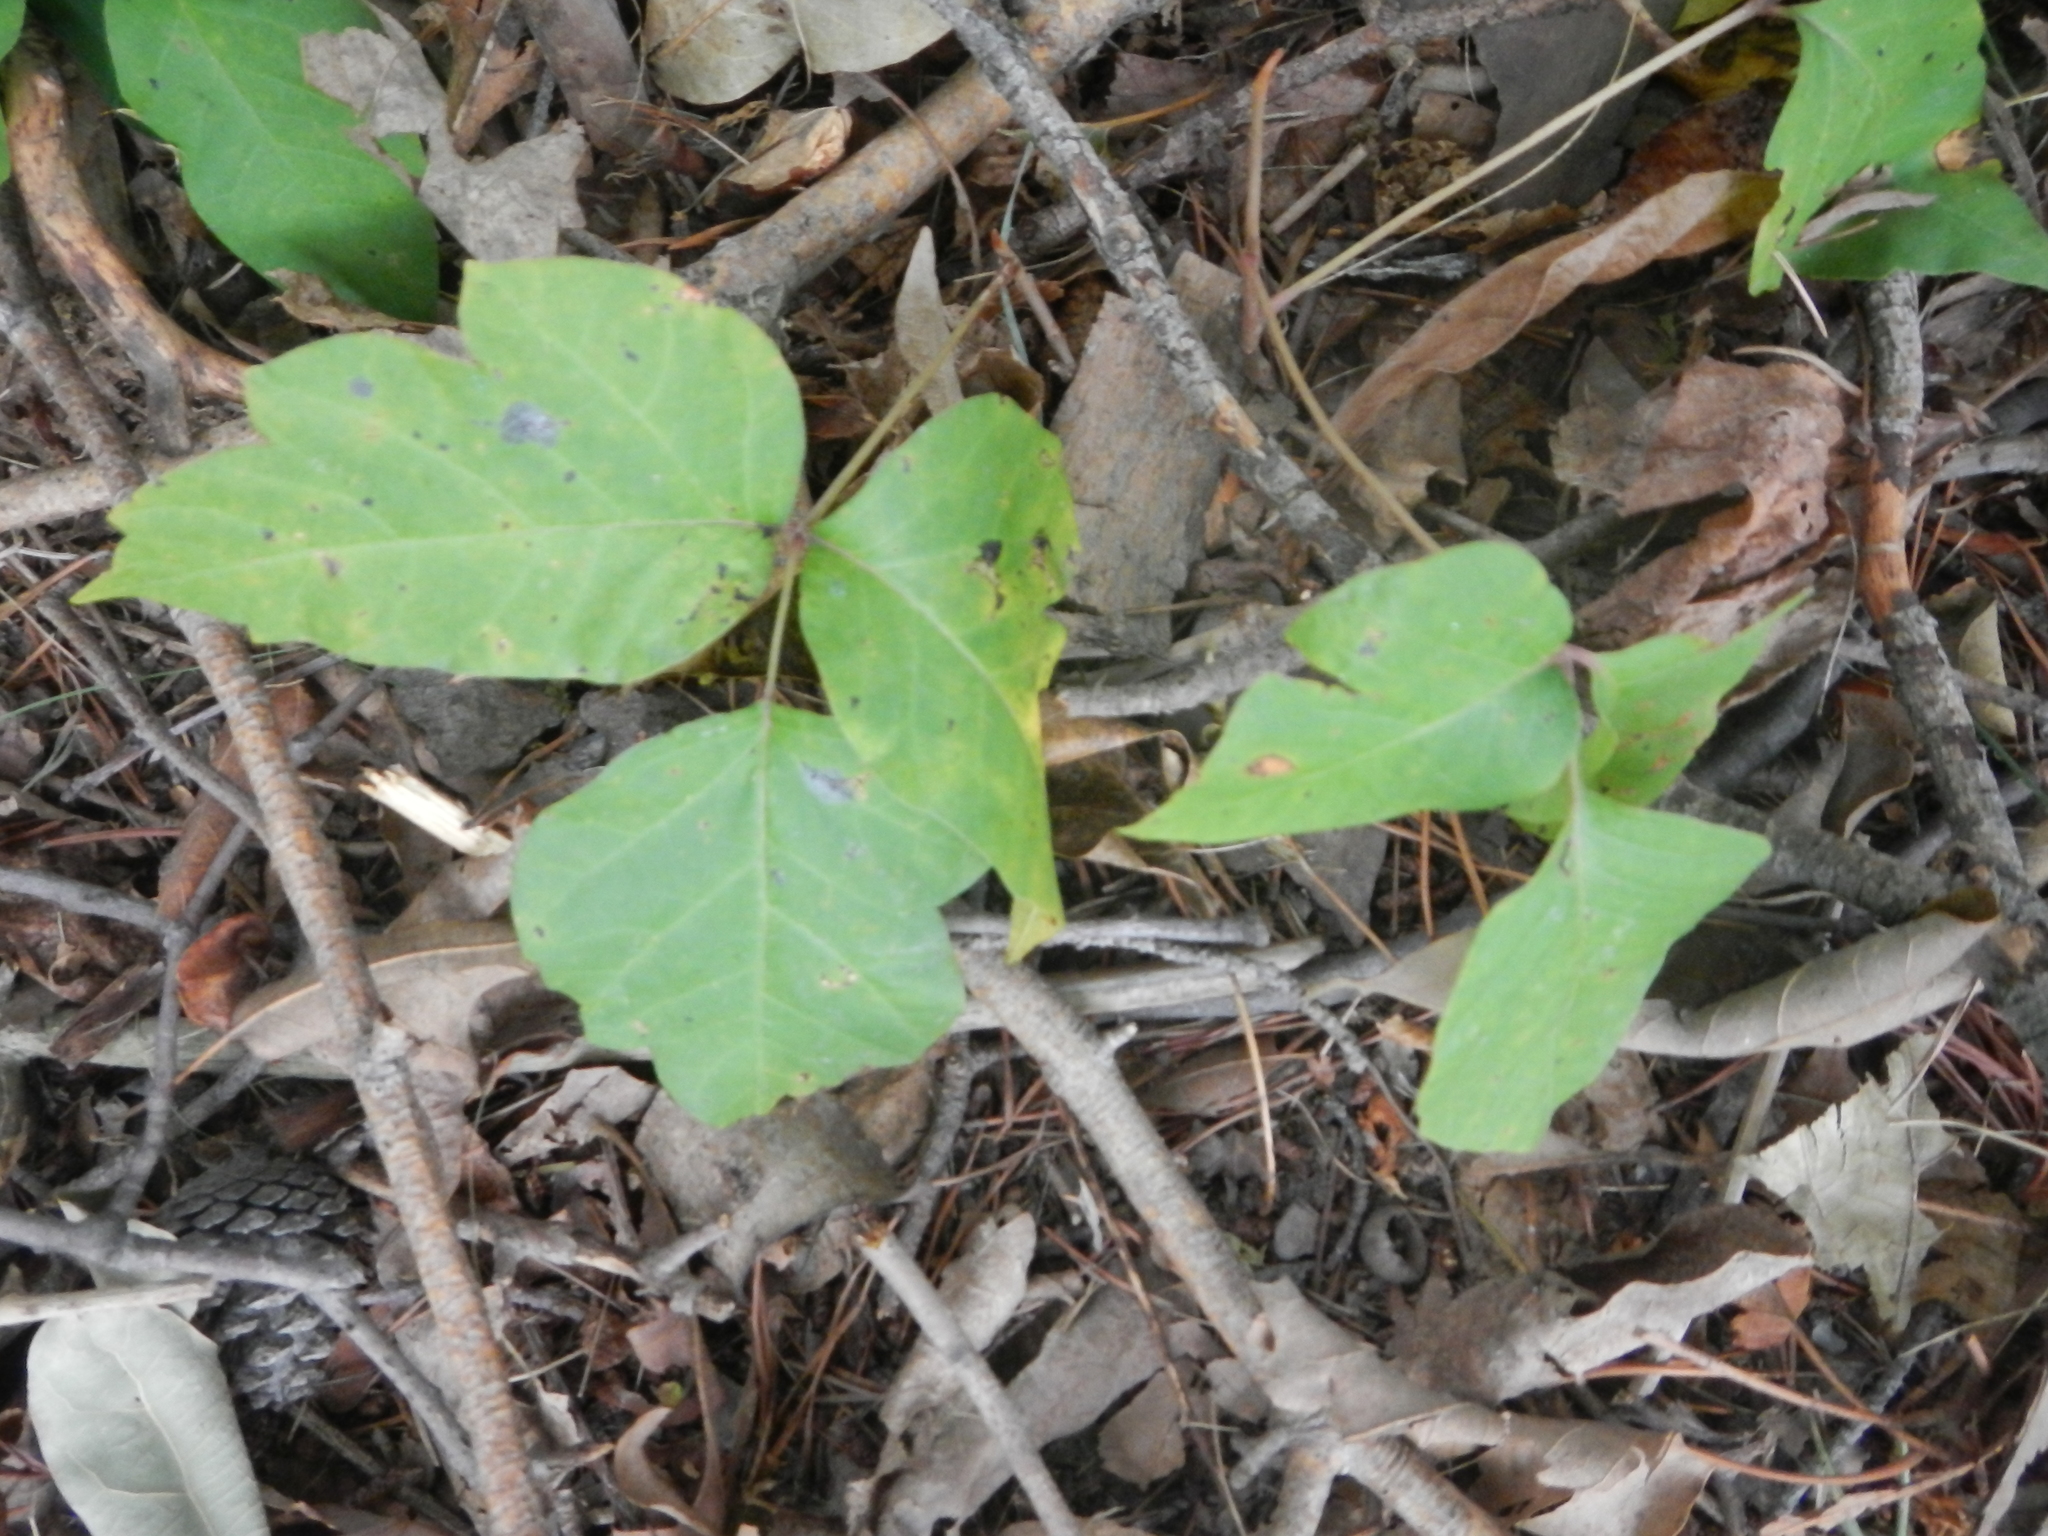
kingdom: Plantae
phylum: Tracheophyta
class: Magnoliopsida
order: Sapindales
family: Anacardiaceae
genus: Toxicodendron
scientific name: Toxicodendron radicans
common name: Poison ivy
